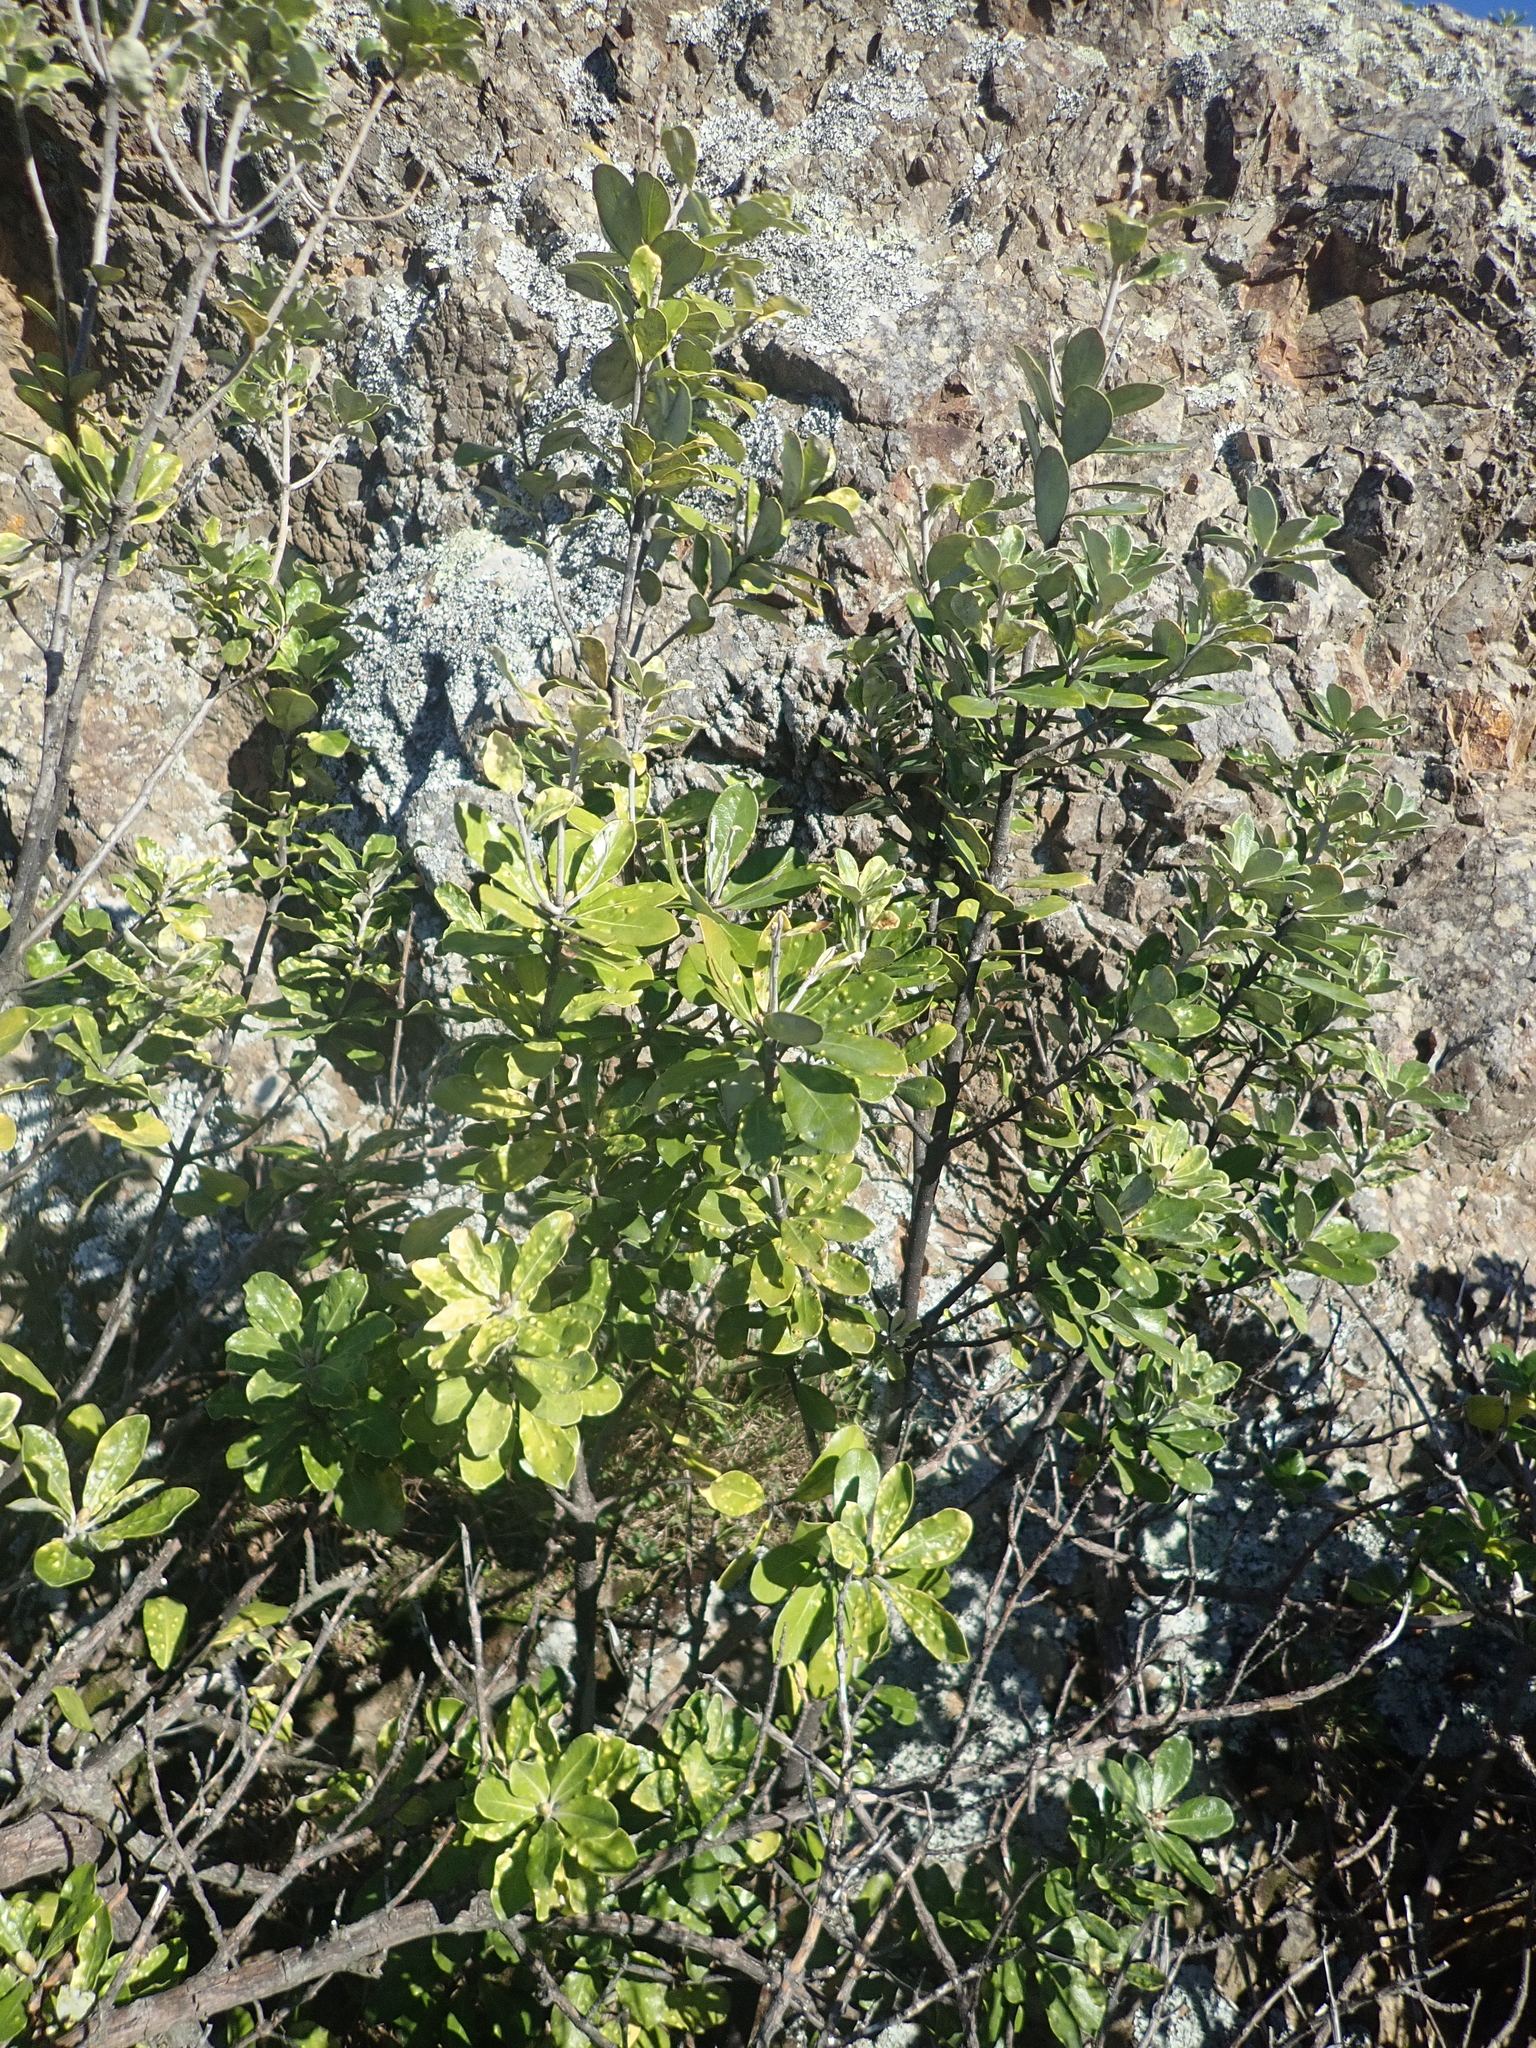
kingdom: Plantae
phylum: Tracheophyta
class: Magnoliopsida
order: Apiales
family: Pittosporaceae
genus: Pittosporum
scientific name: Pittosporum crassifolium
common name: Karo
